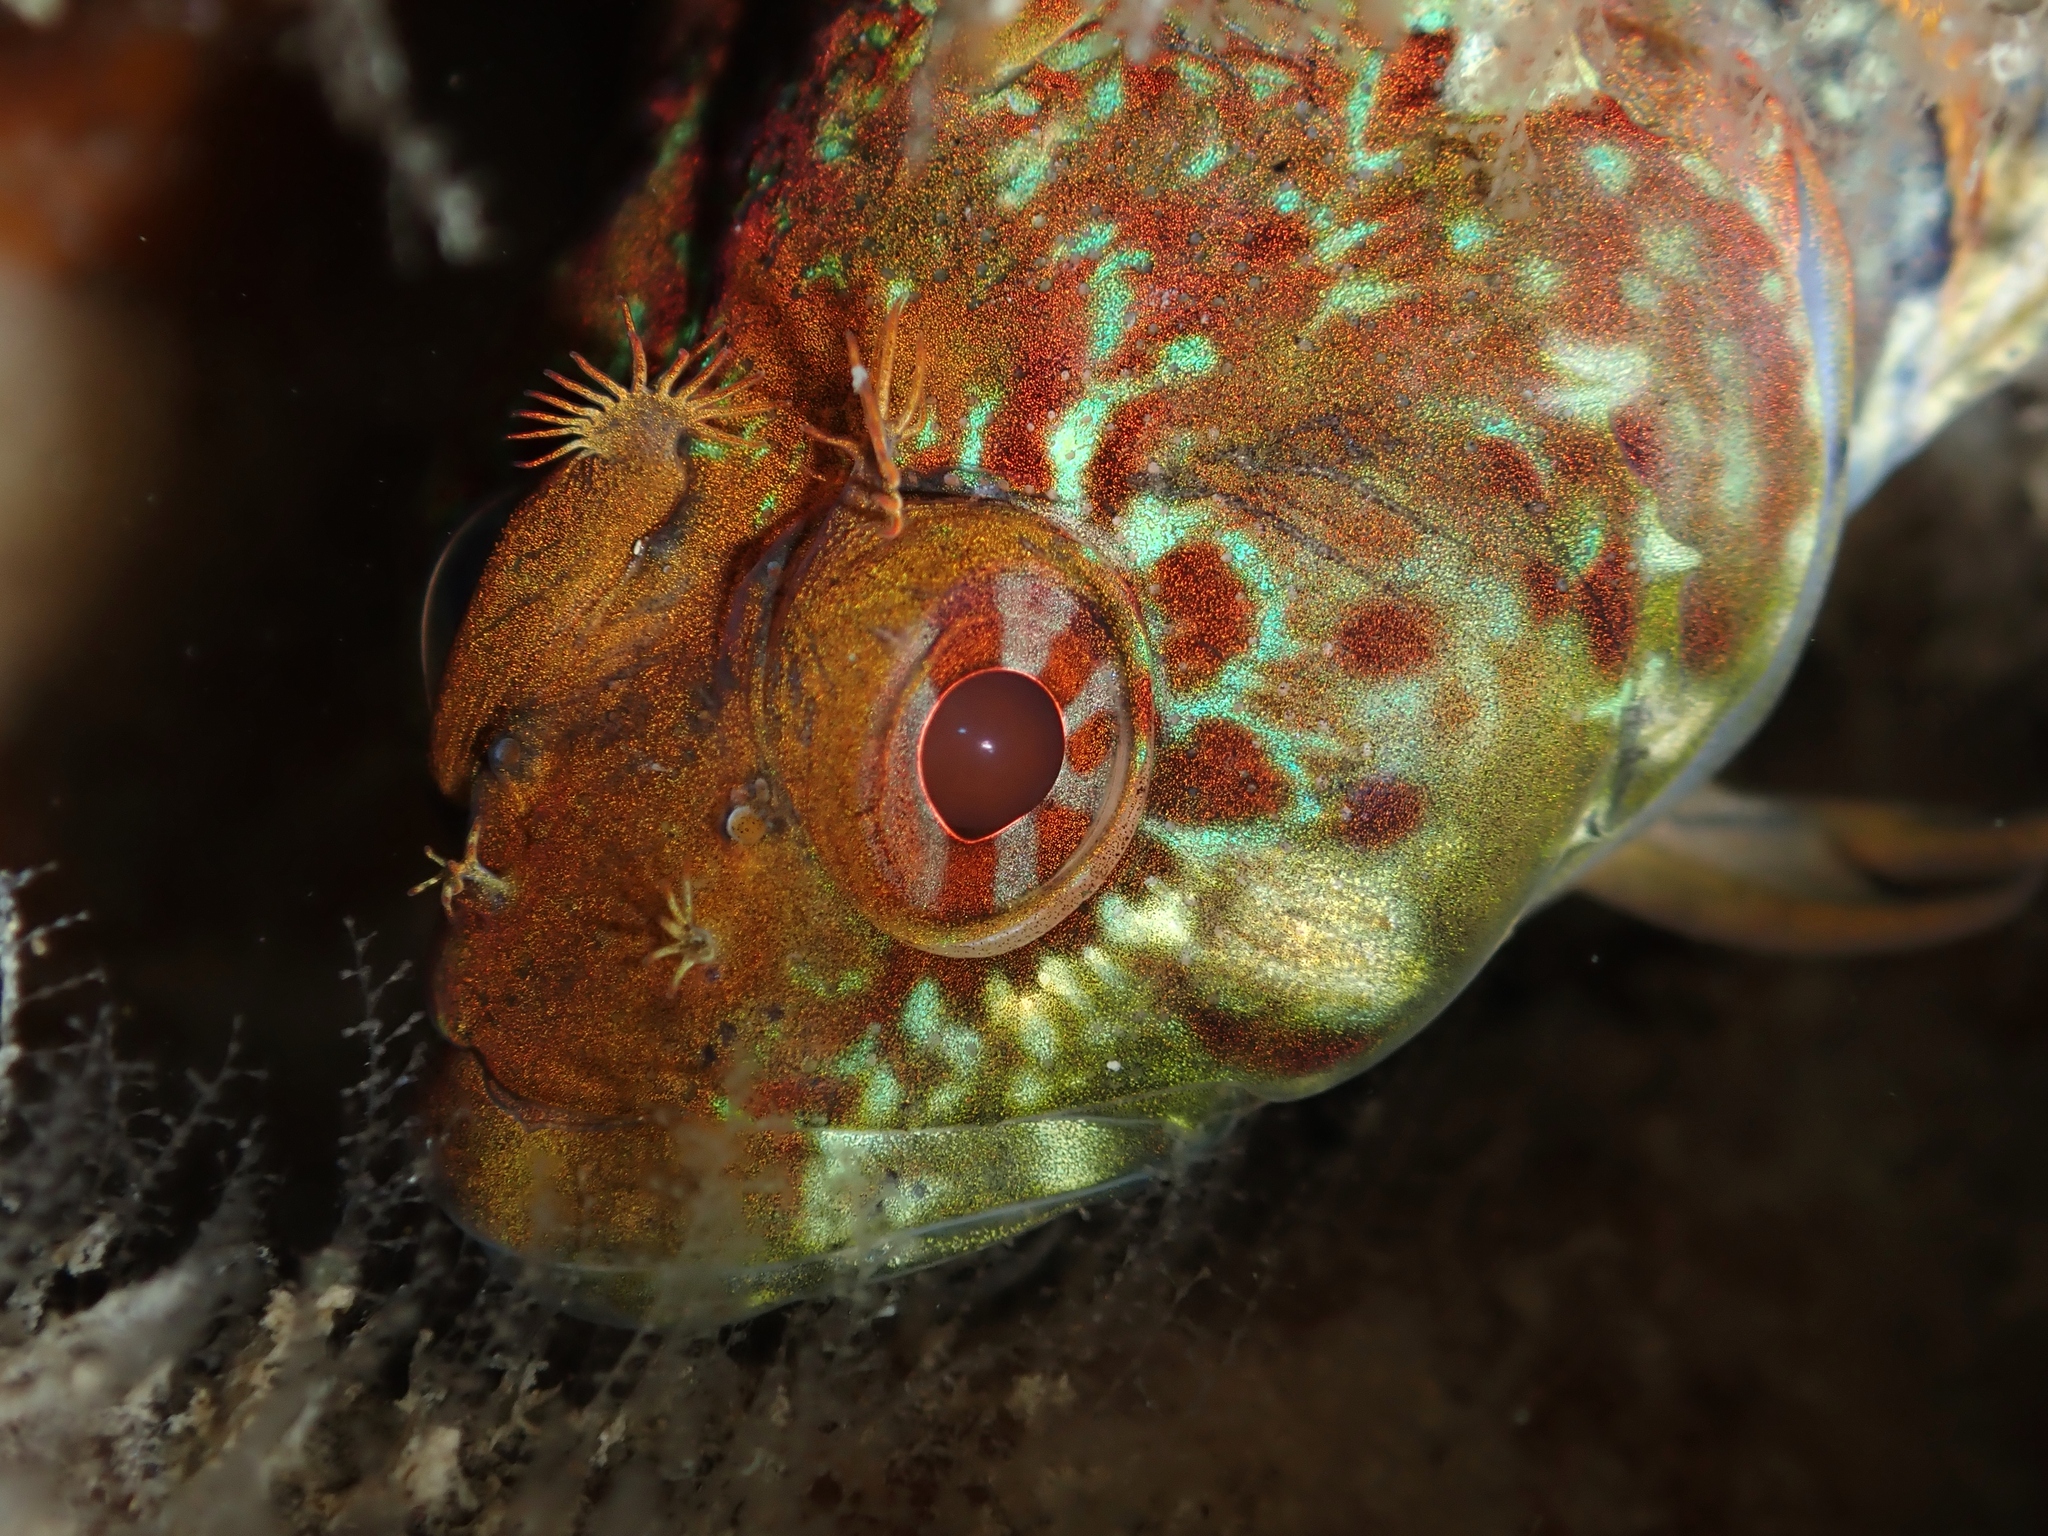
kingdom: Animalia
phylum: Chordata
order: Perciformes
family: Tripterygiidae
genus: Gilloblennius
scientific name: Gilloblennius abditus
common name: Obscure triplefin
